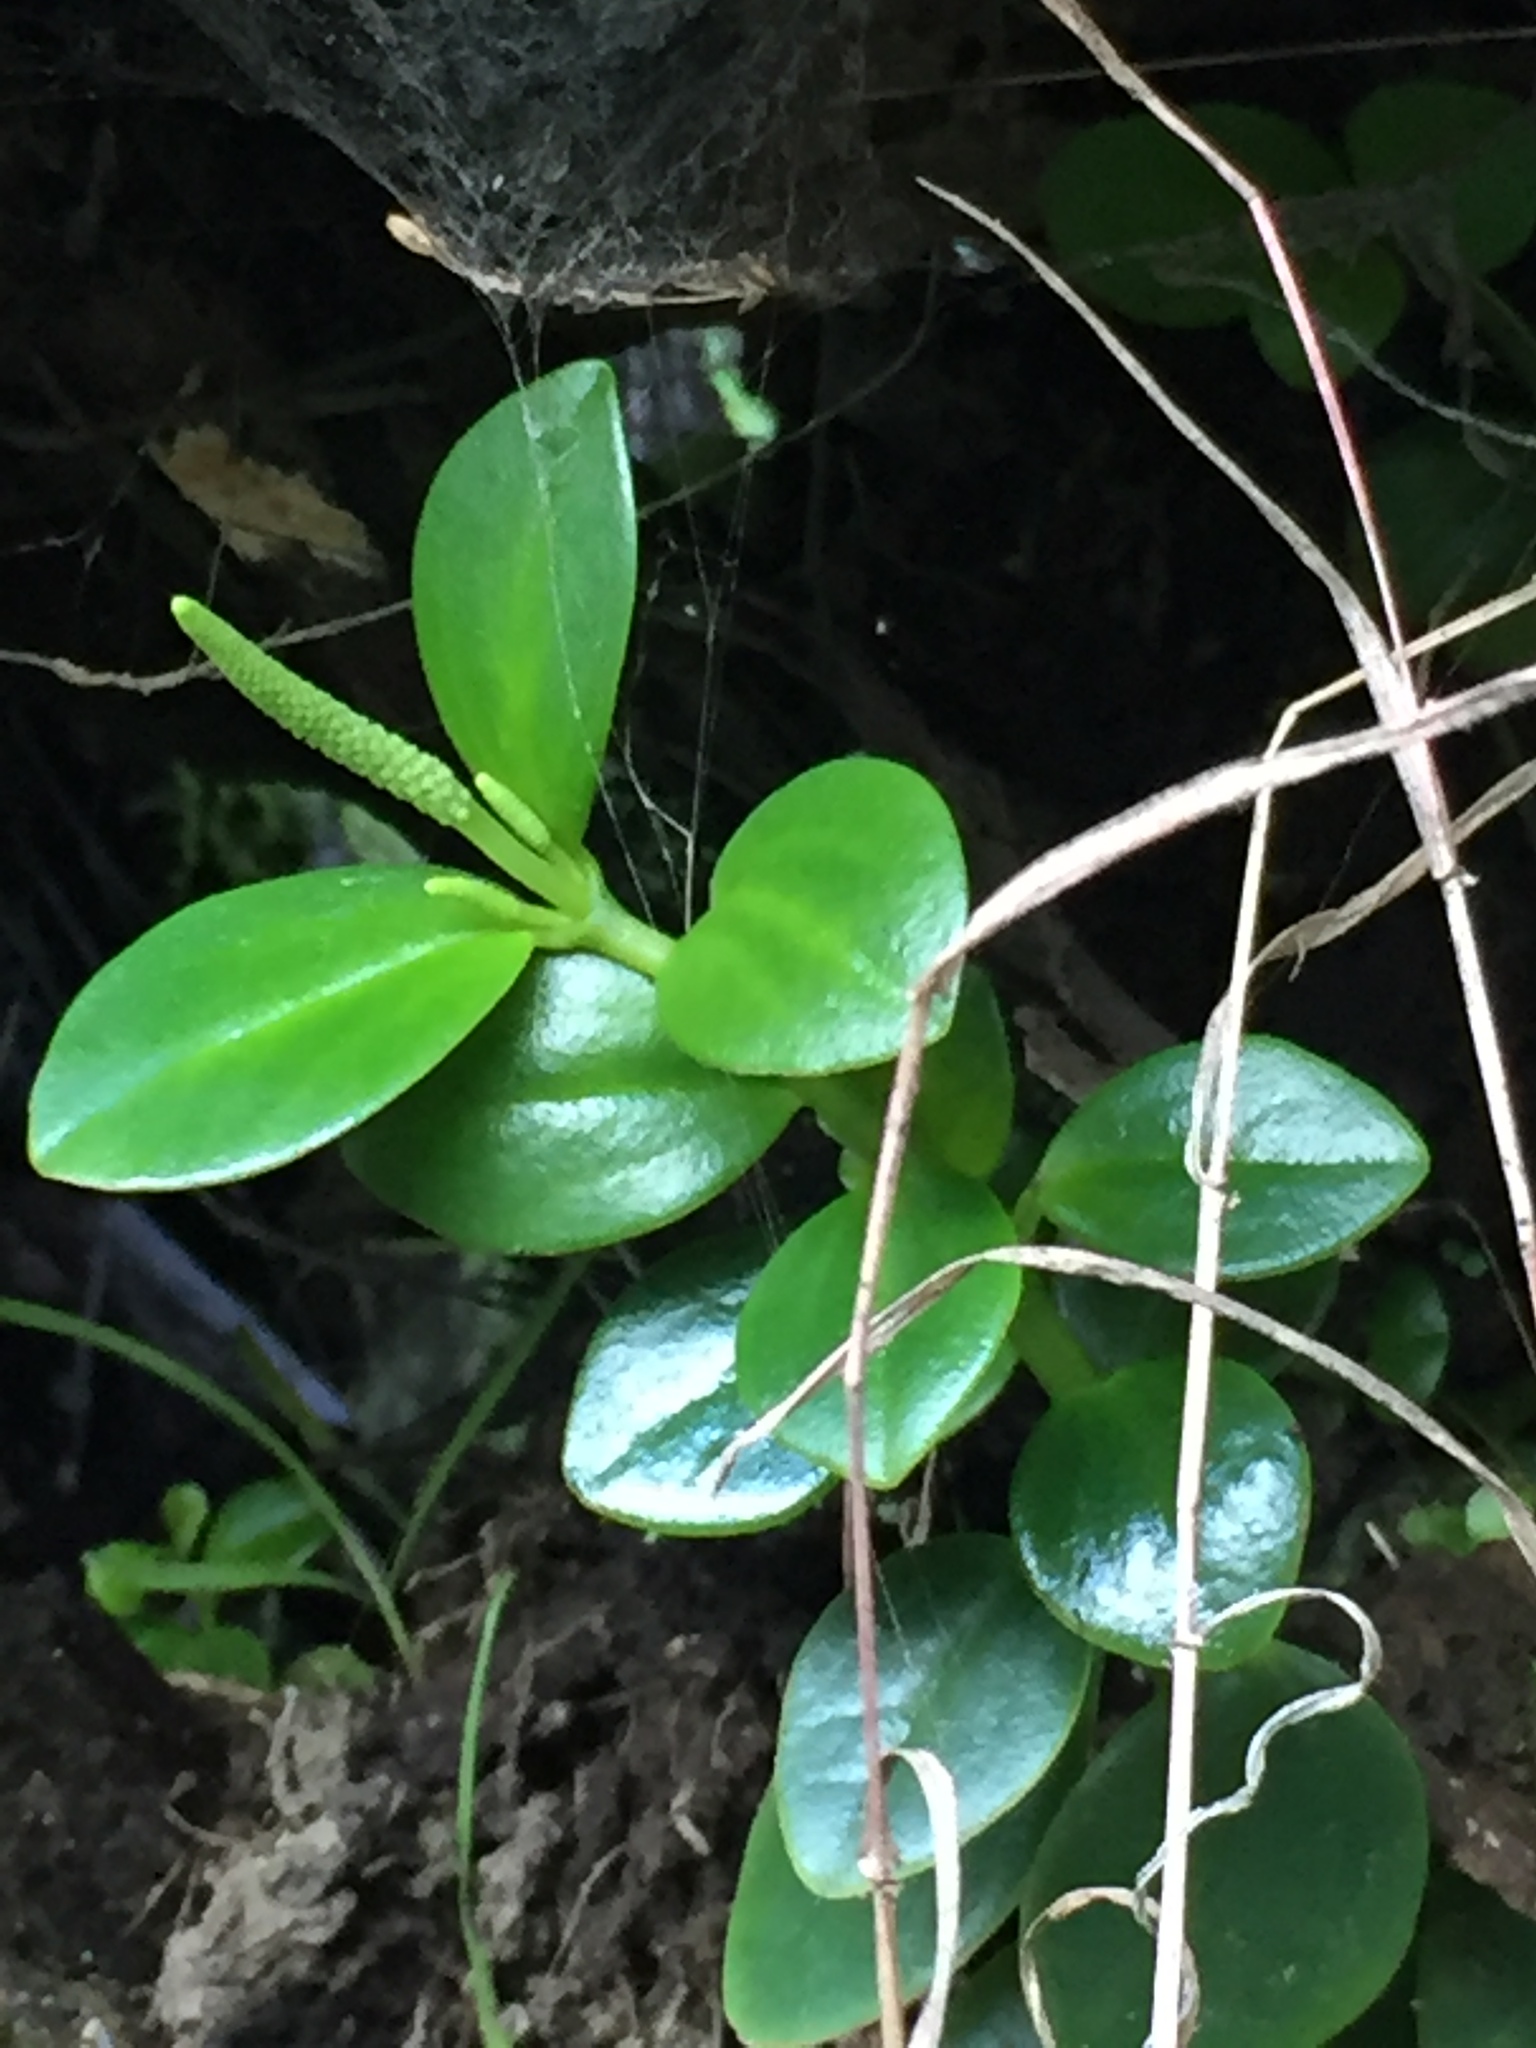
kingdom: Plantae
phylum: Tracheophyta
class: Magnoliopsida
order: Piperales
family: Piperaceae
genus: Peperomia
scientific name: Peperomia urvilleana
